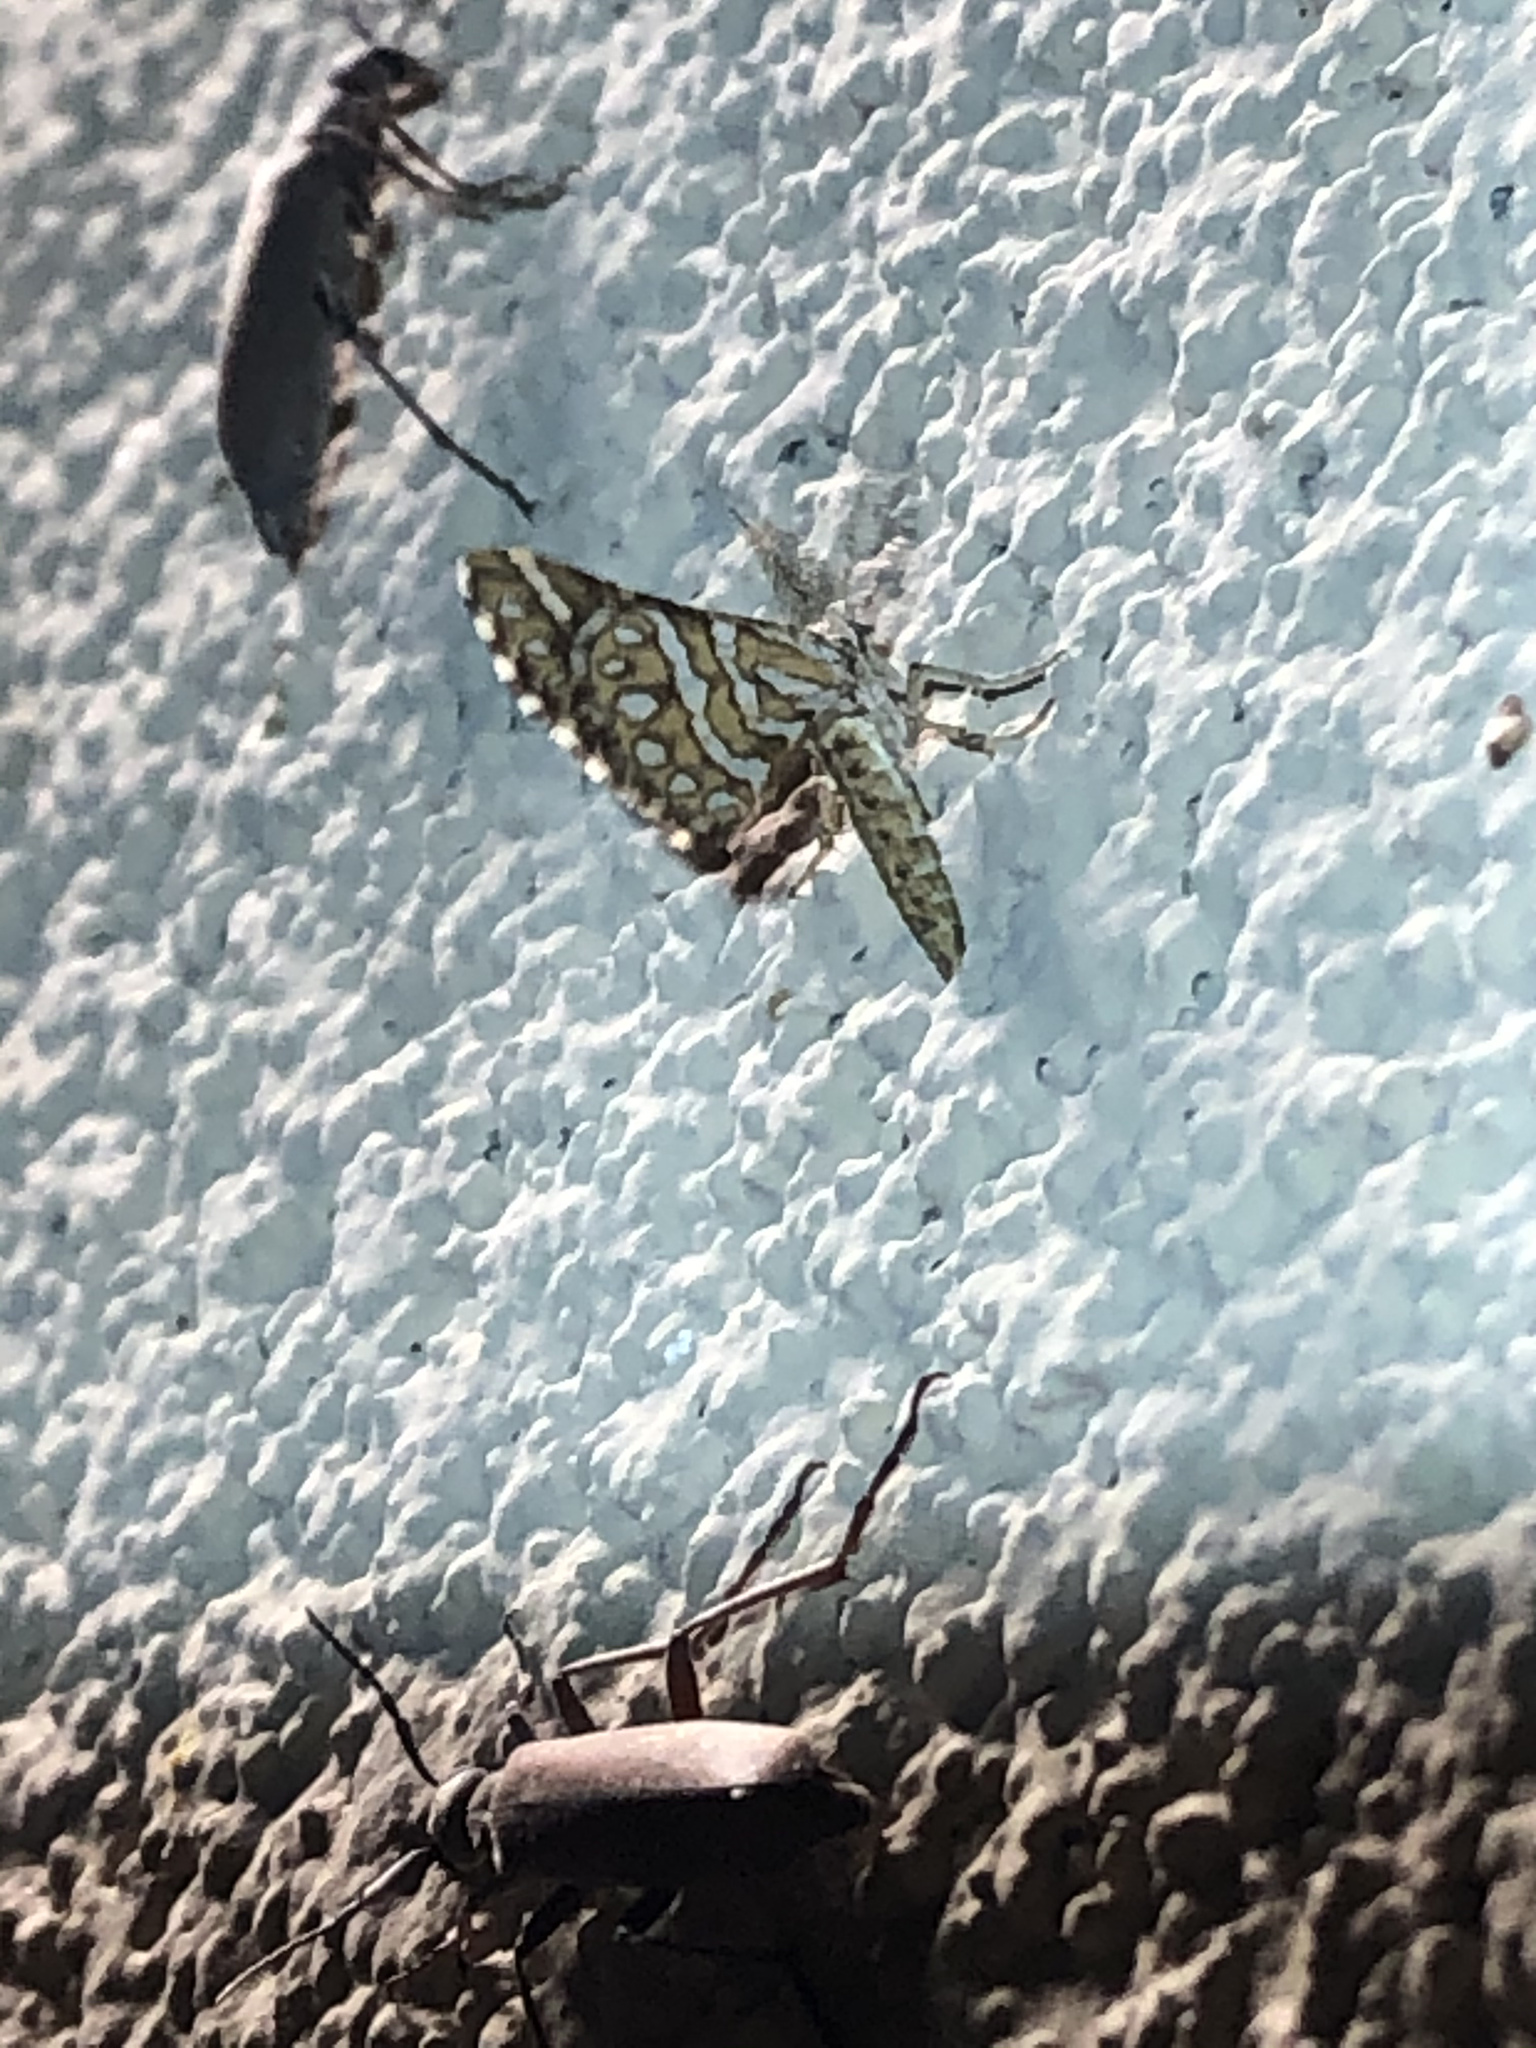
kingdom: Animalia
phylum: Arthropoda
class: Insecta
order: Lepidoptera
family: Geometridae
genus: Narraga
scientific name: Narraga fimetaria
